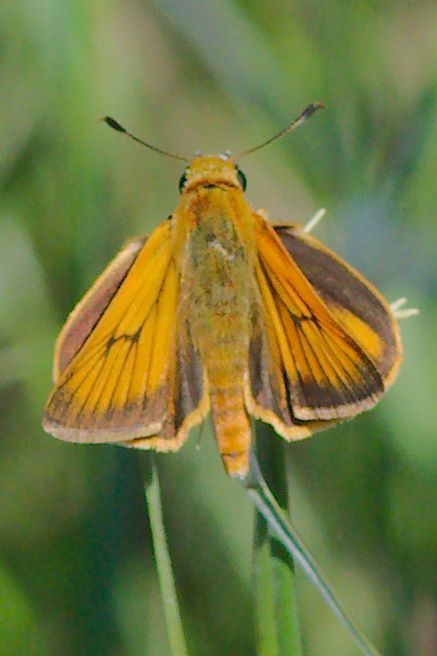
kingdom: Animalia
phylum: Arthropoda
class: Insecta
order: Lepidoptera
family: Hesperiidae
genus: Atrytone
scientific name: Atrytone delaware
